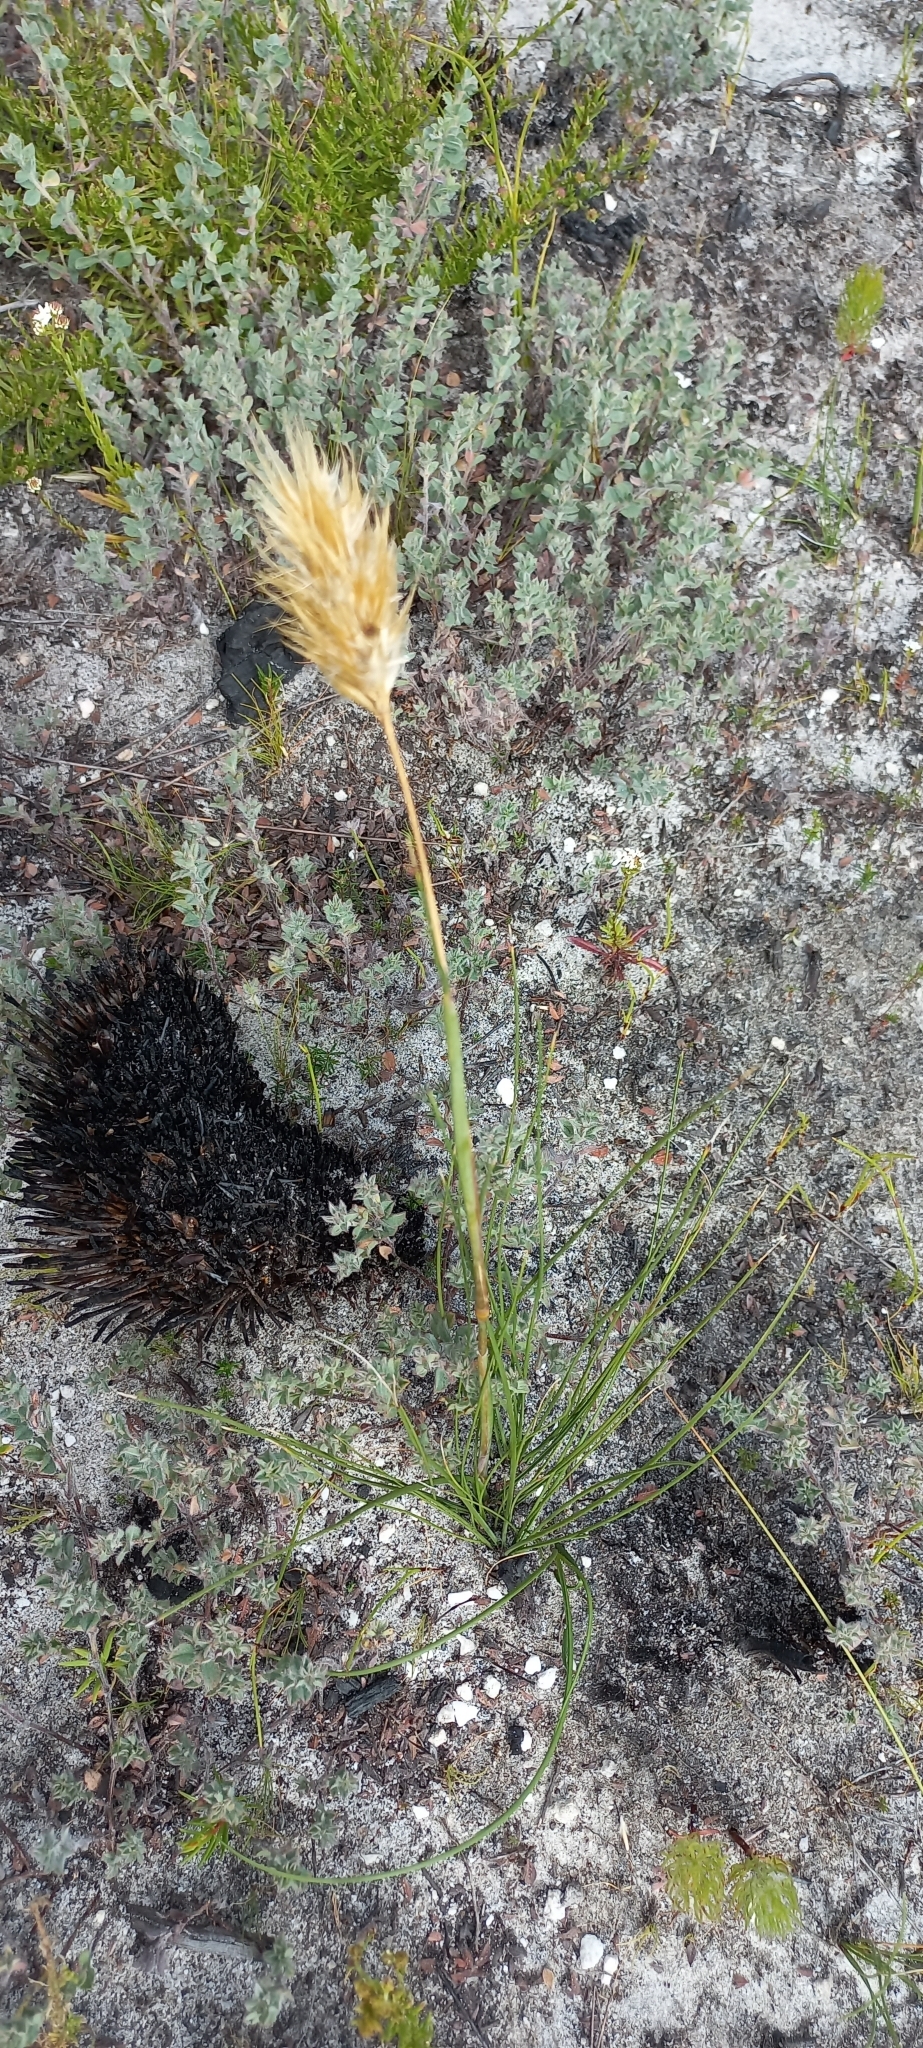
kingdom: Plantae
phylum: Tracheophyta
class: Liliopsida
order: Poales
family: Poaceae
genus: Geochloa
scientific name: Geochloa rufa
